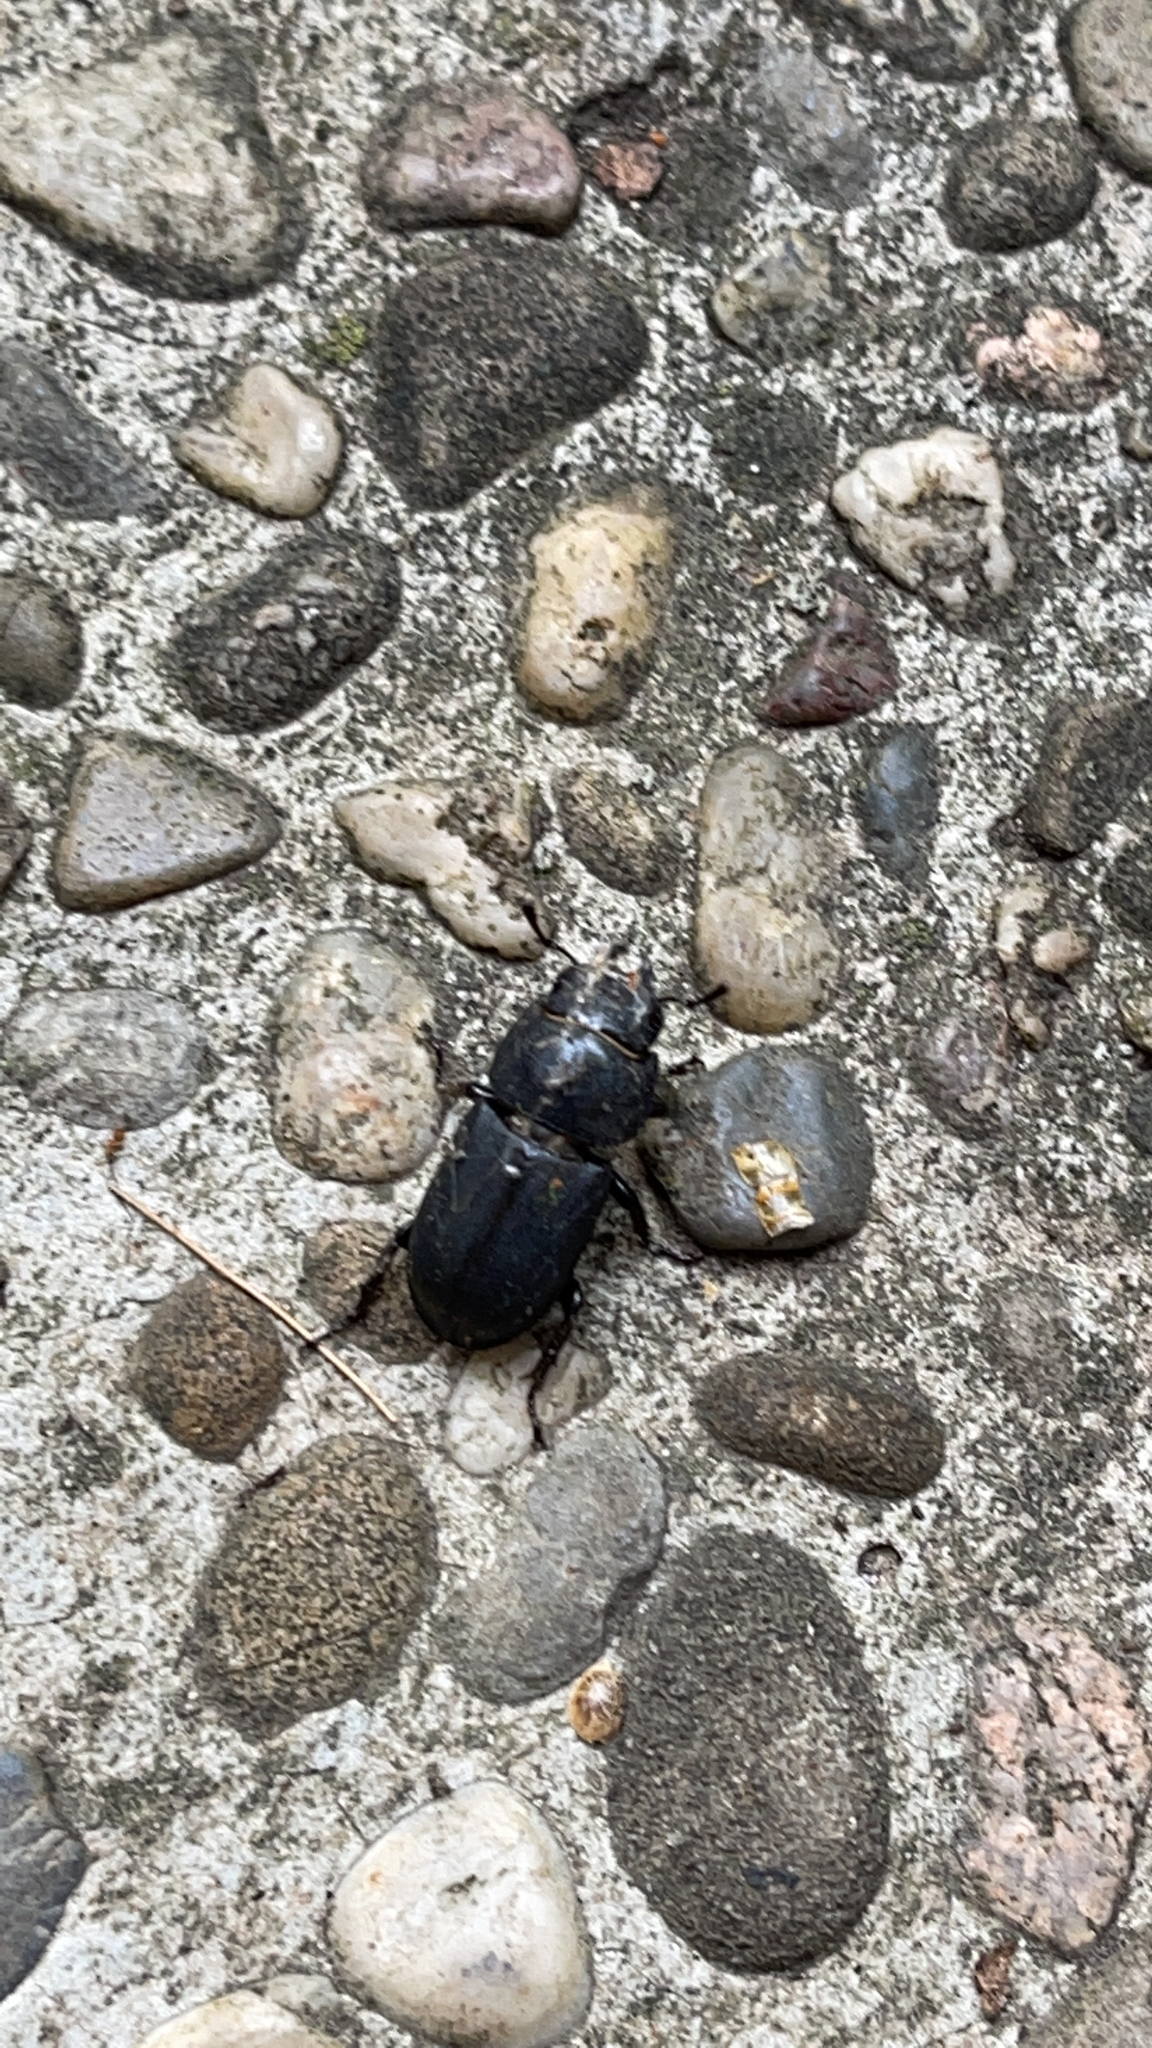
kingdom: Animalia
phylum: Arthropoda
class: Insecta
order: Coleoptera
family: Lucanidae
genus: Dorcus
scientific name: Dorcus parallelipipedus
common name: Lesser stag beetle
